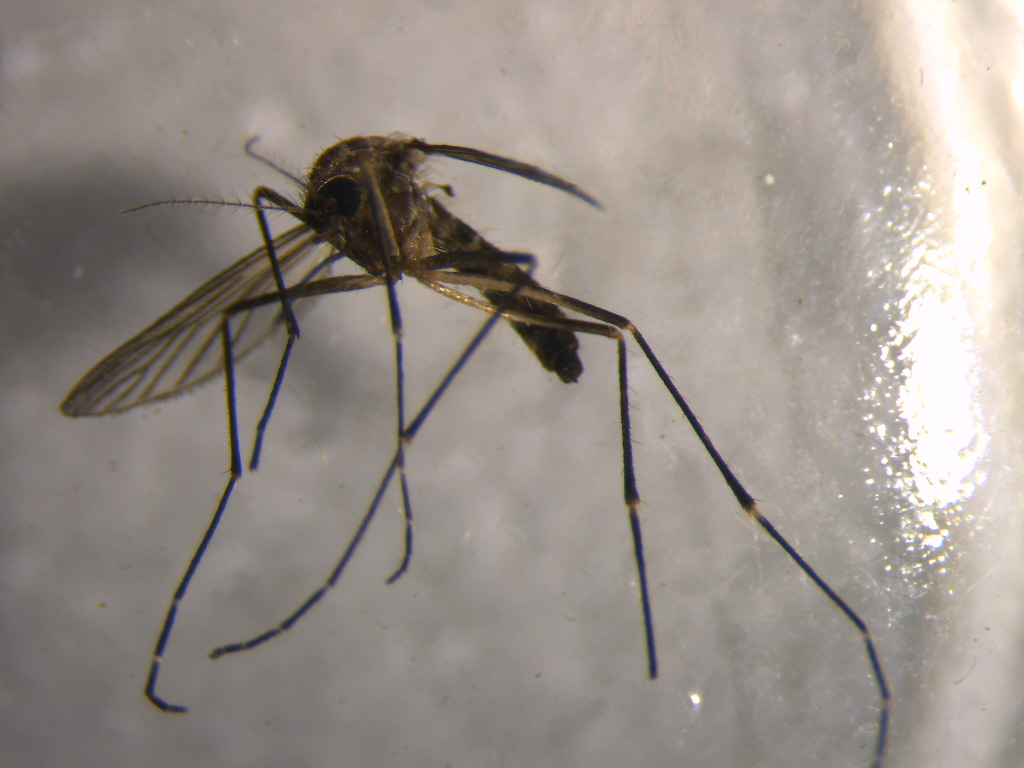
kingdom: Animalia
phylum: Arthropoda
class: Insecta
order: Diptera
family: Culicidae
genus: Aedes
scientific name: Aedes antipodeus
